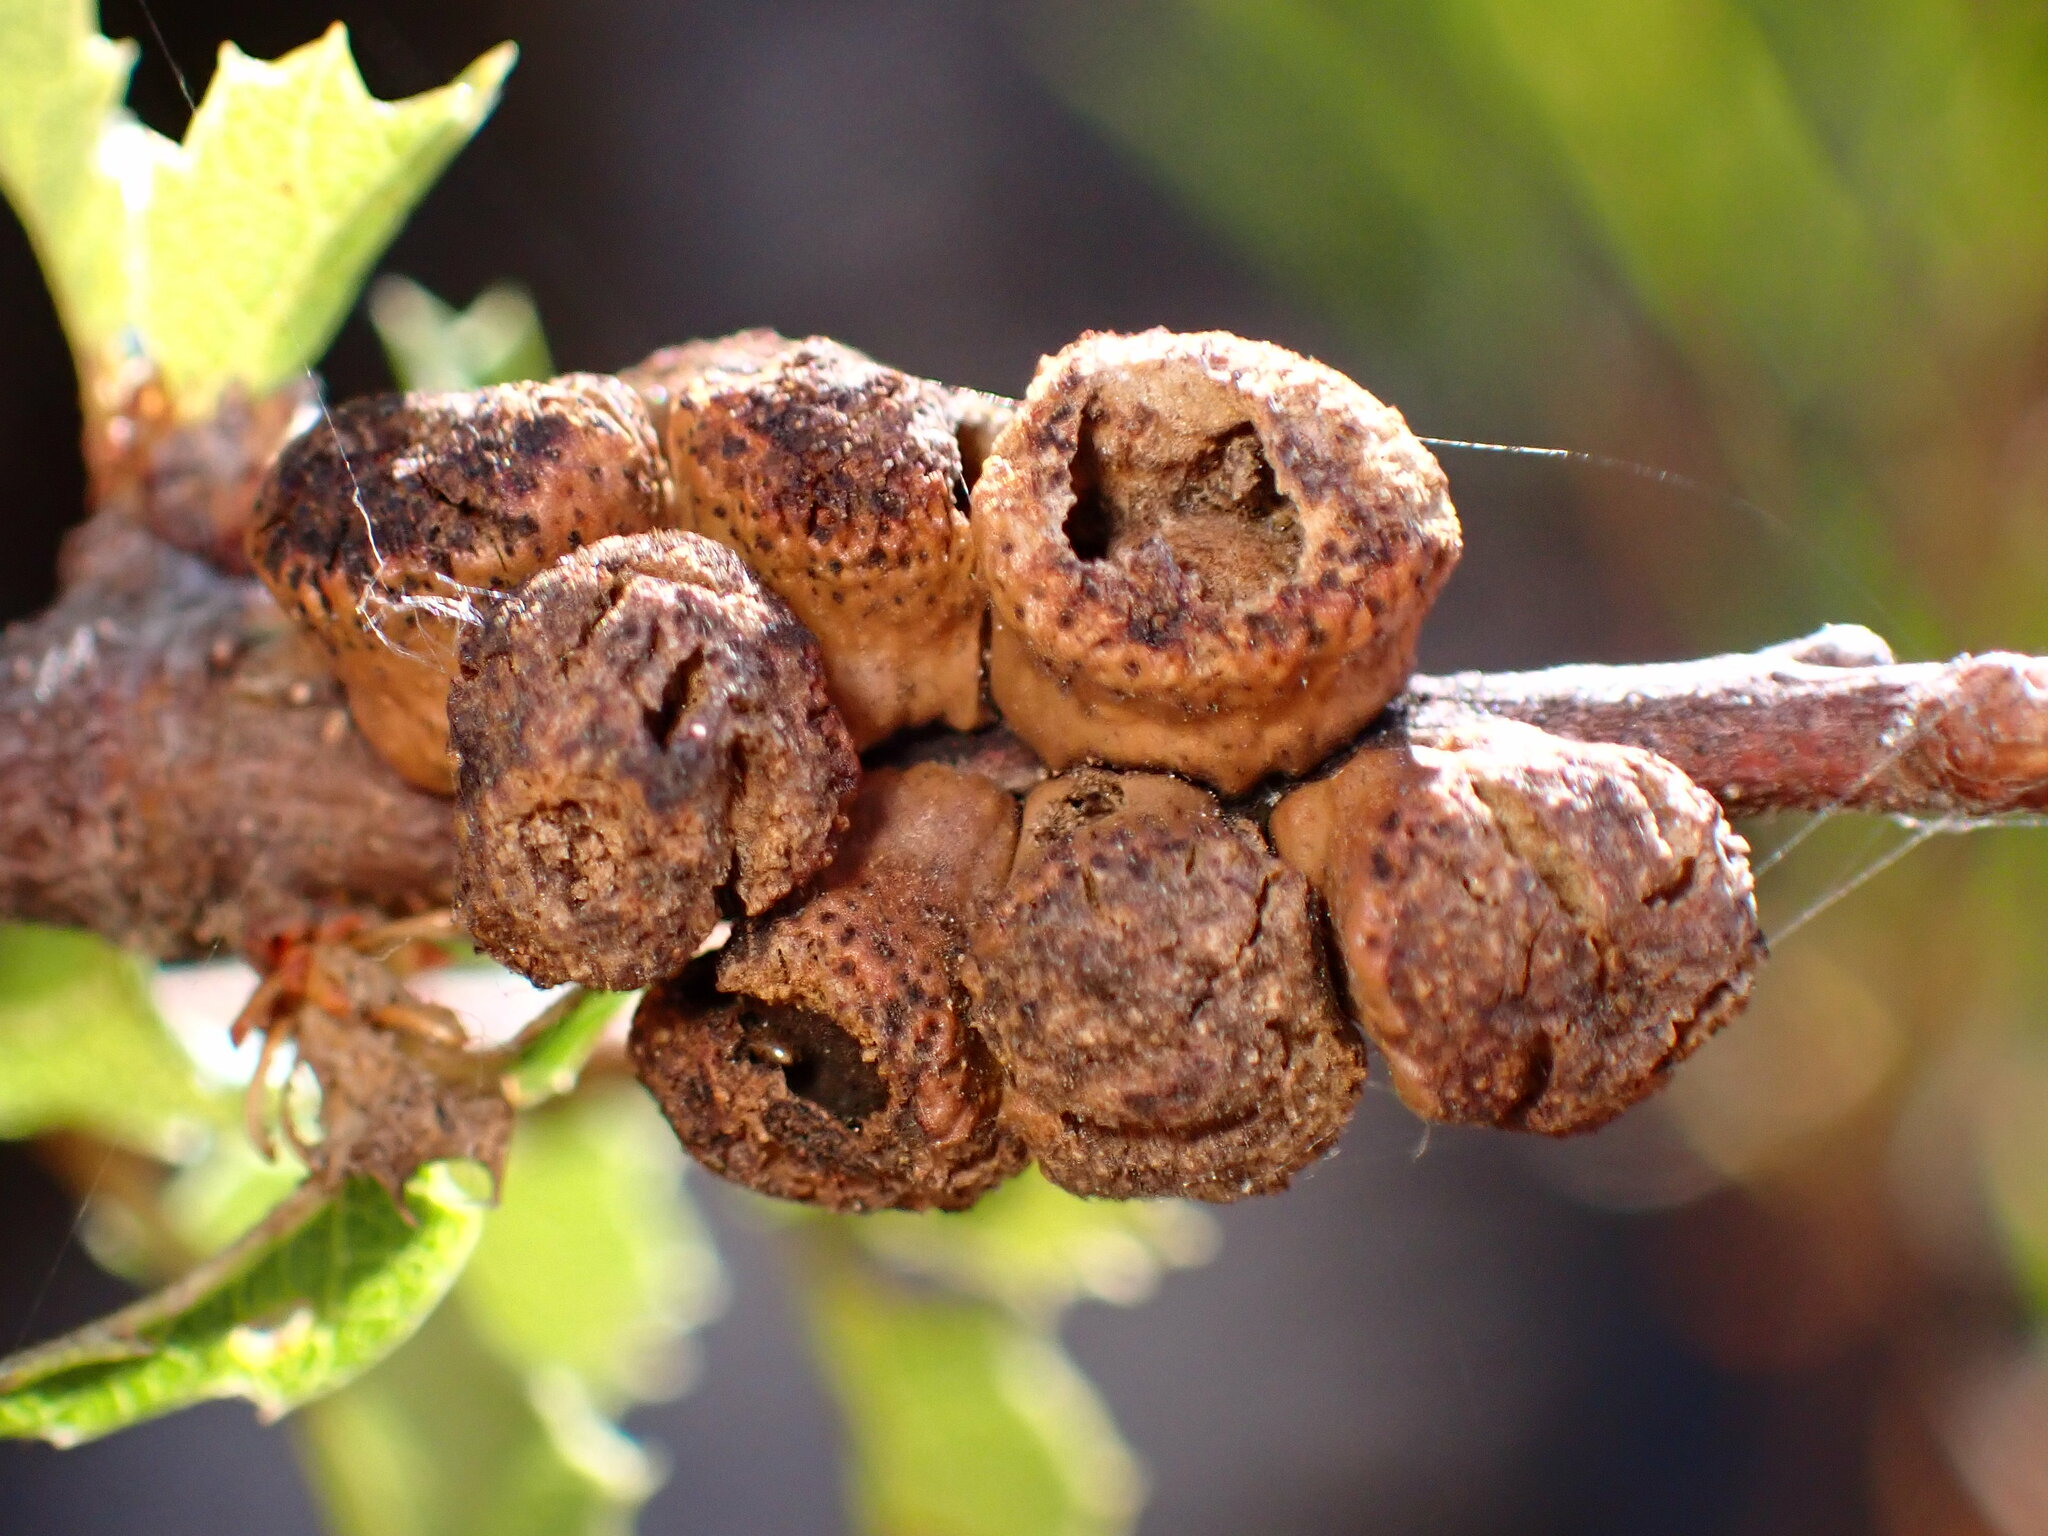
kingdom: Animalia
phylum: Arthropoda
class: Insecta
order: Hymenoptera
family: Cynipidae
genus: Disholcaspis
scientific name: Disholcaspis
